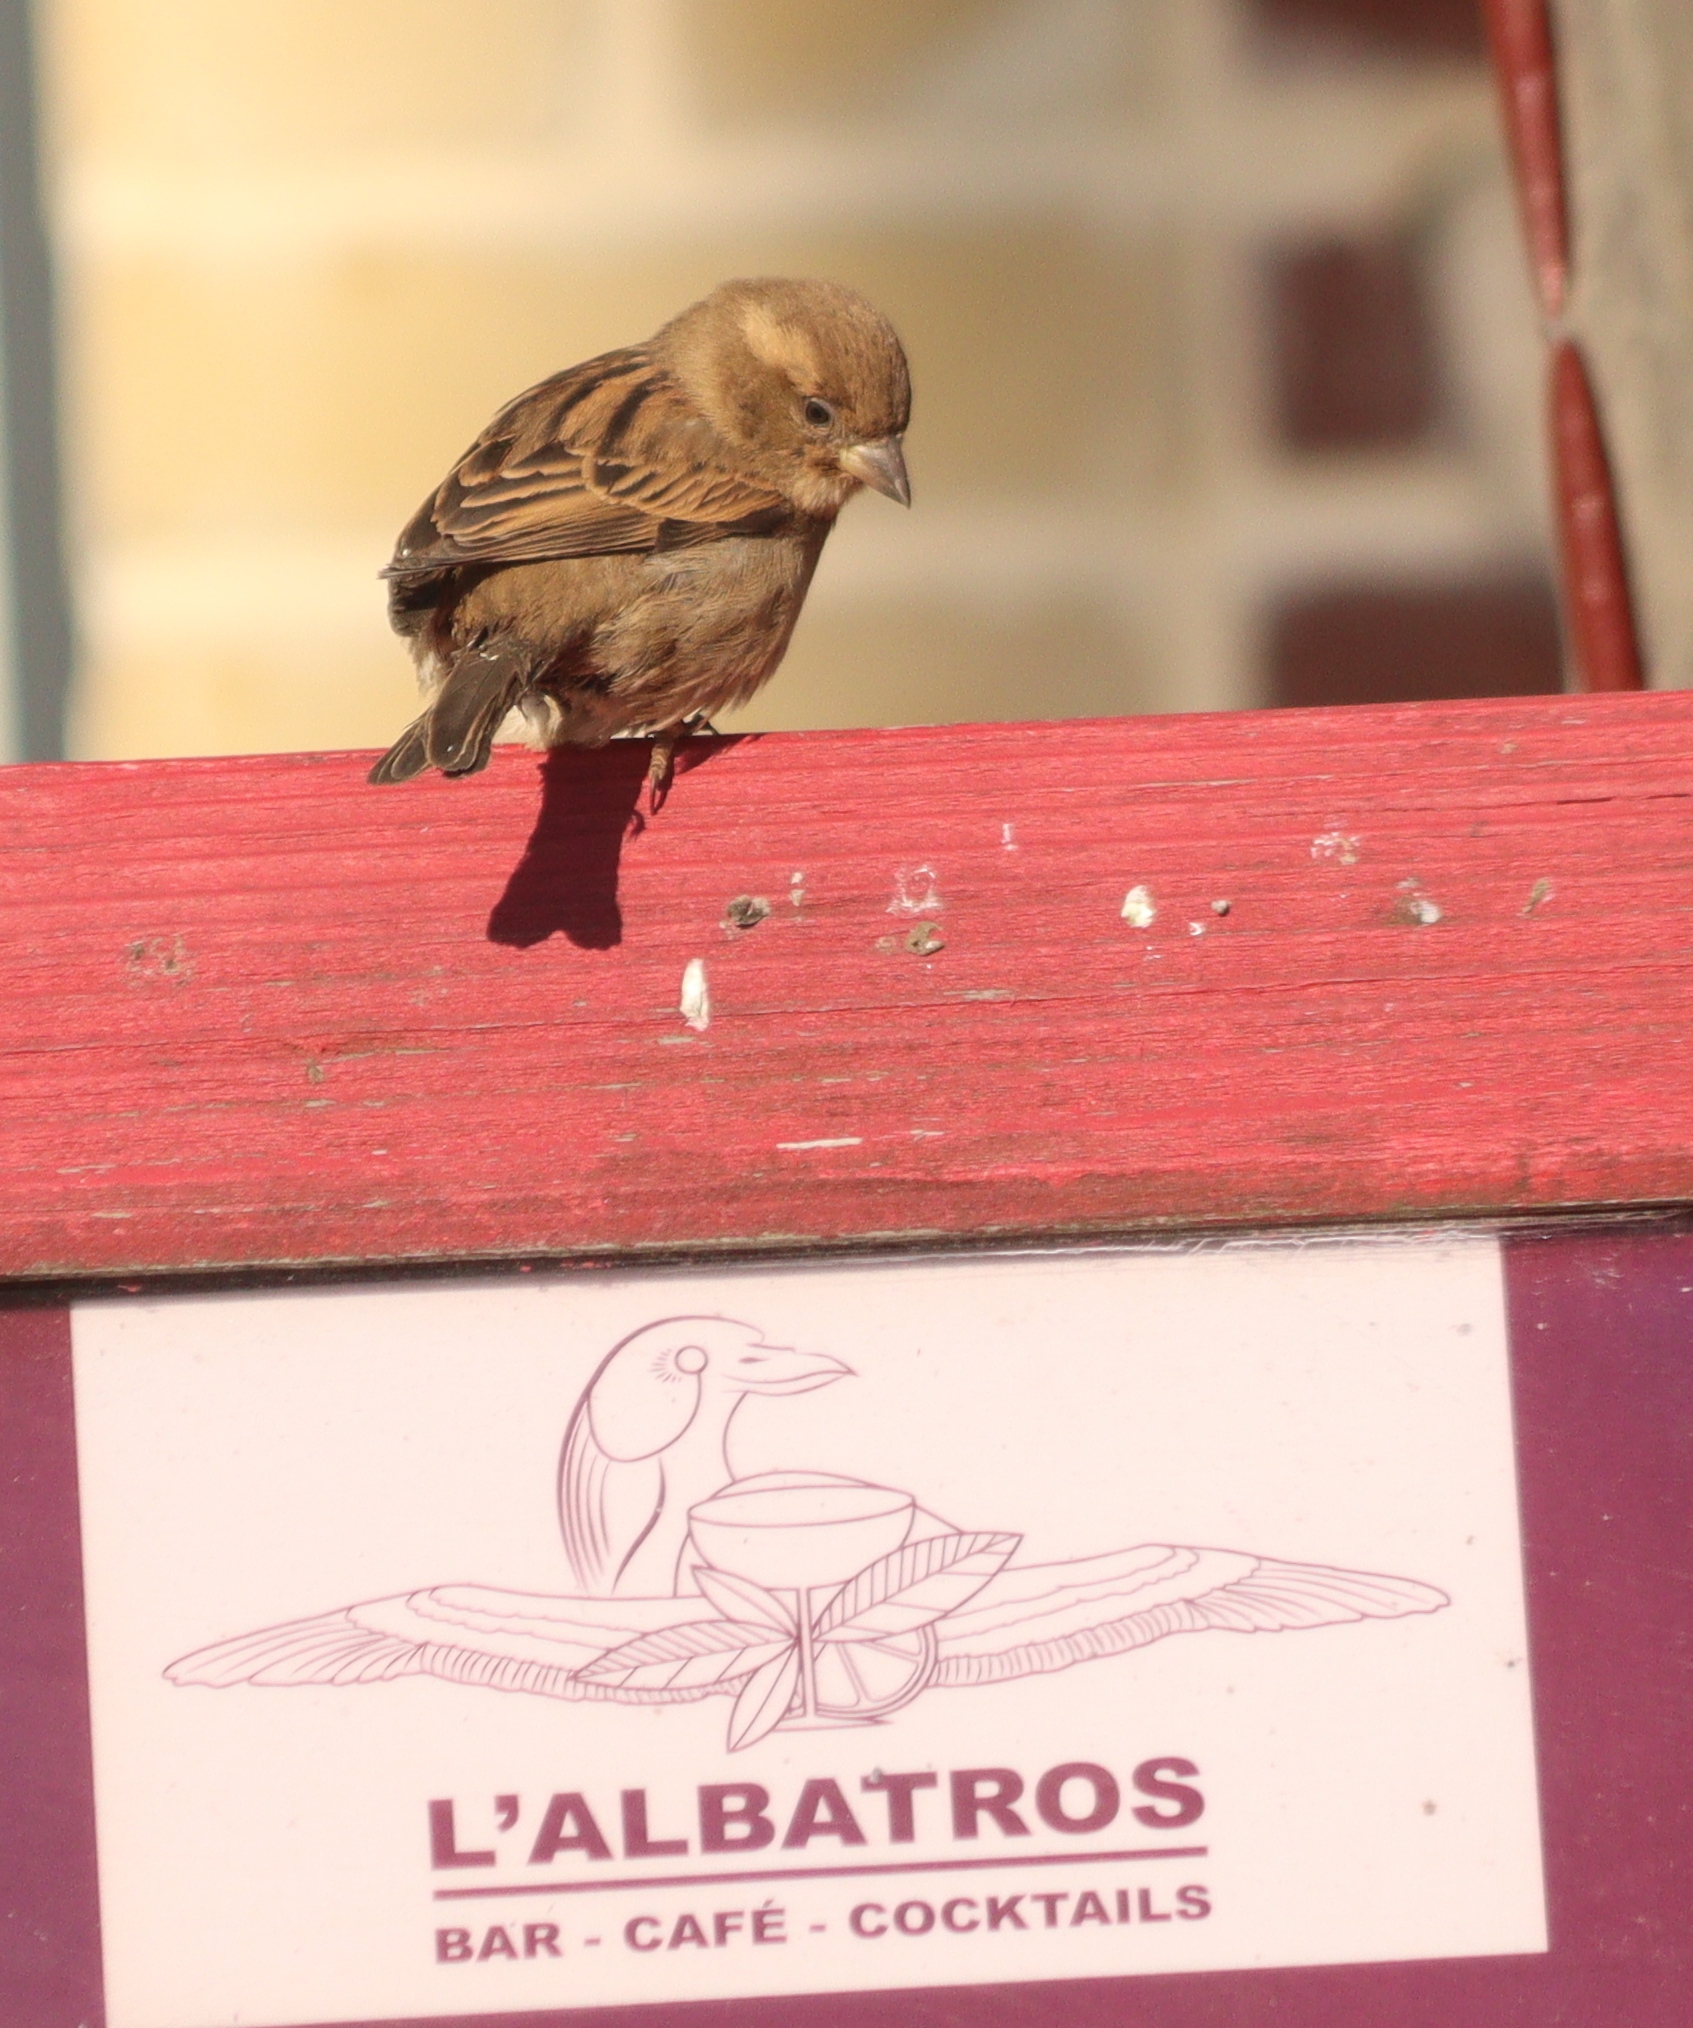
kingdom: Animalia
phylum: Chordata
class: Aves
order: Passeriformes
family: Passeridae
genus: Passer
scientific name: Passer domesticus
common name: House sparrow
